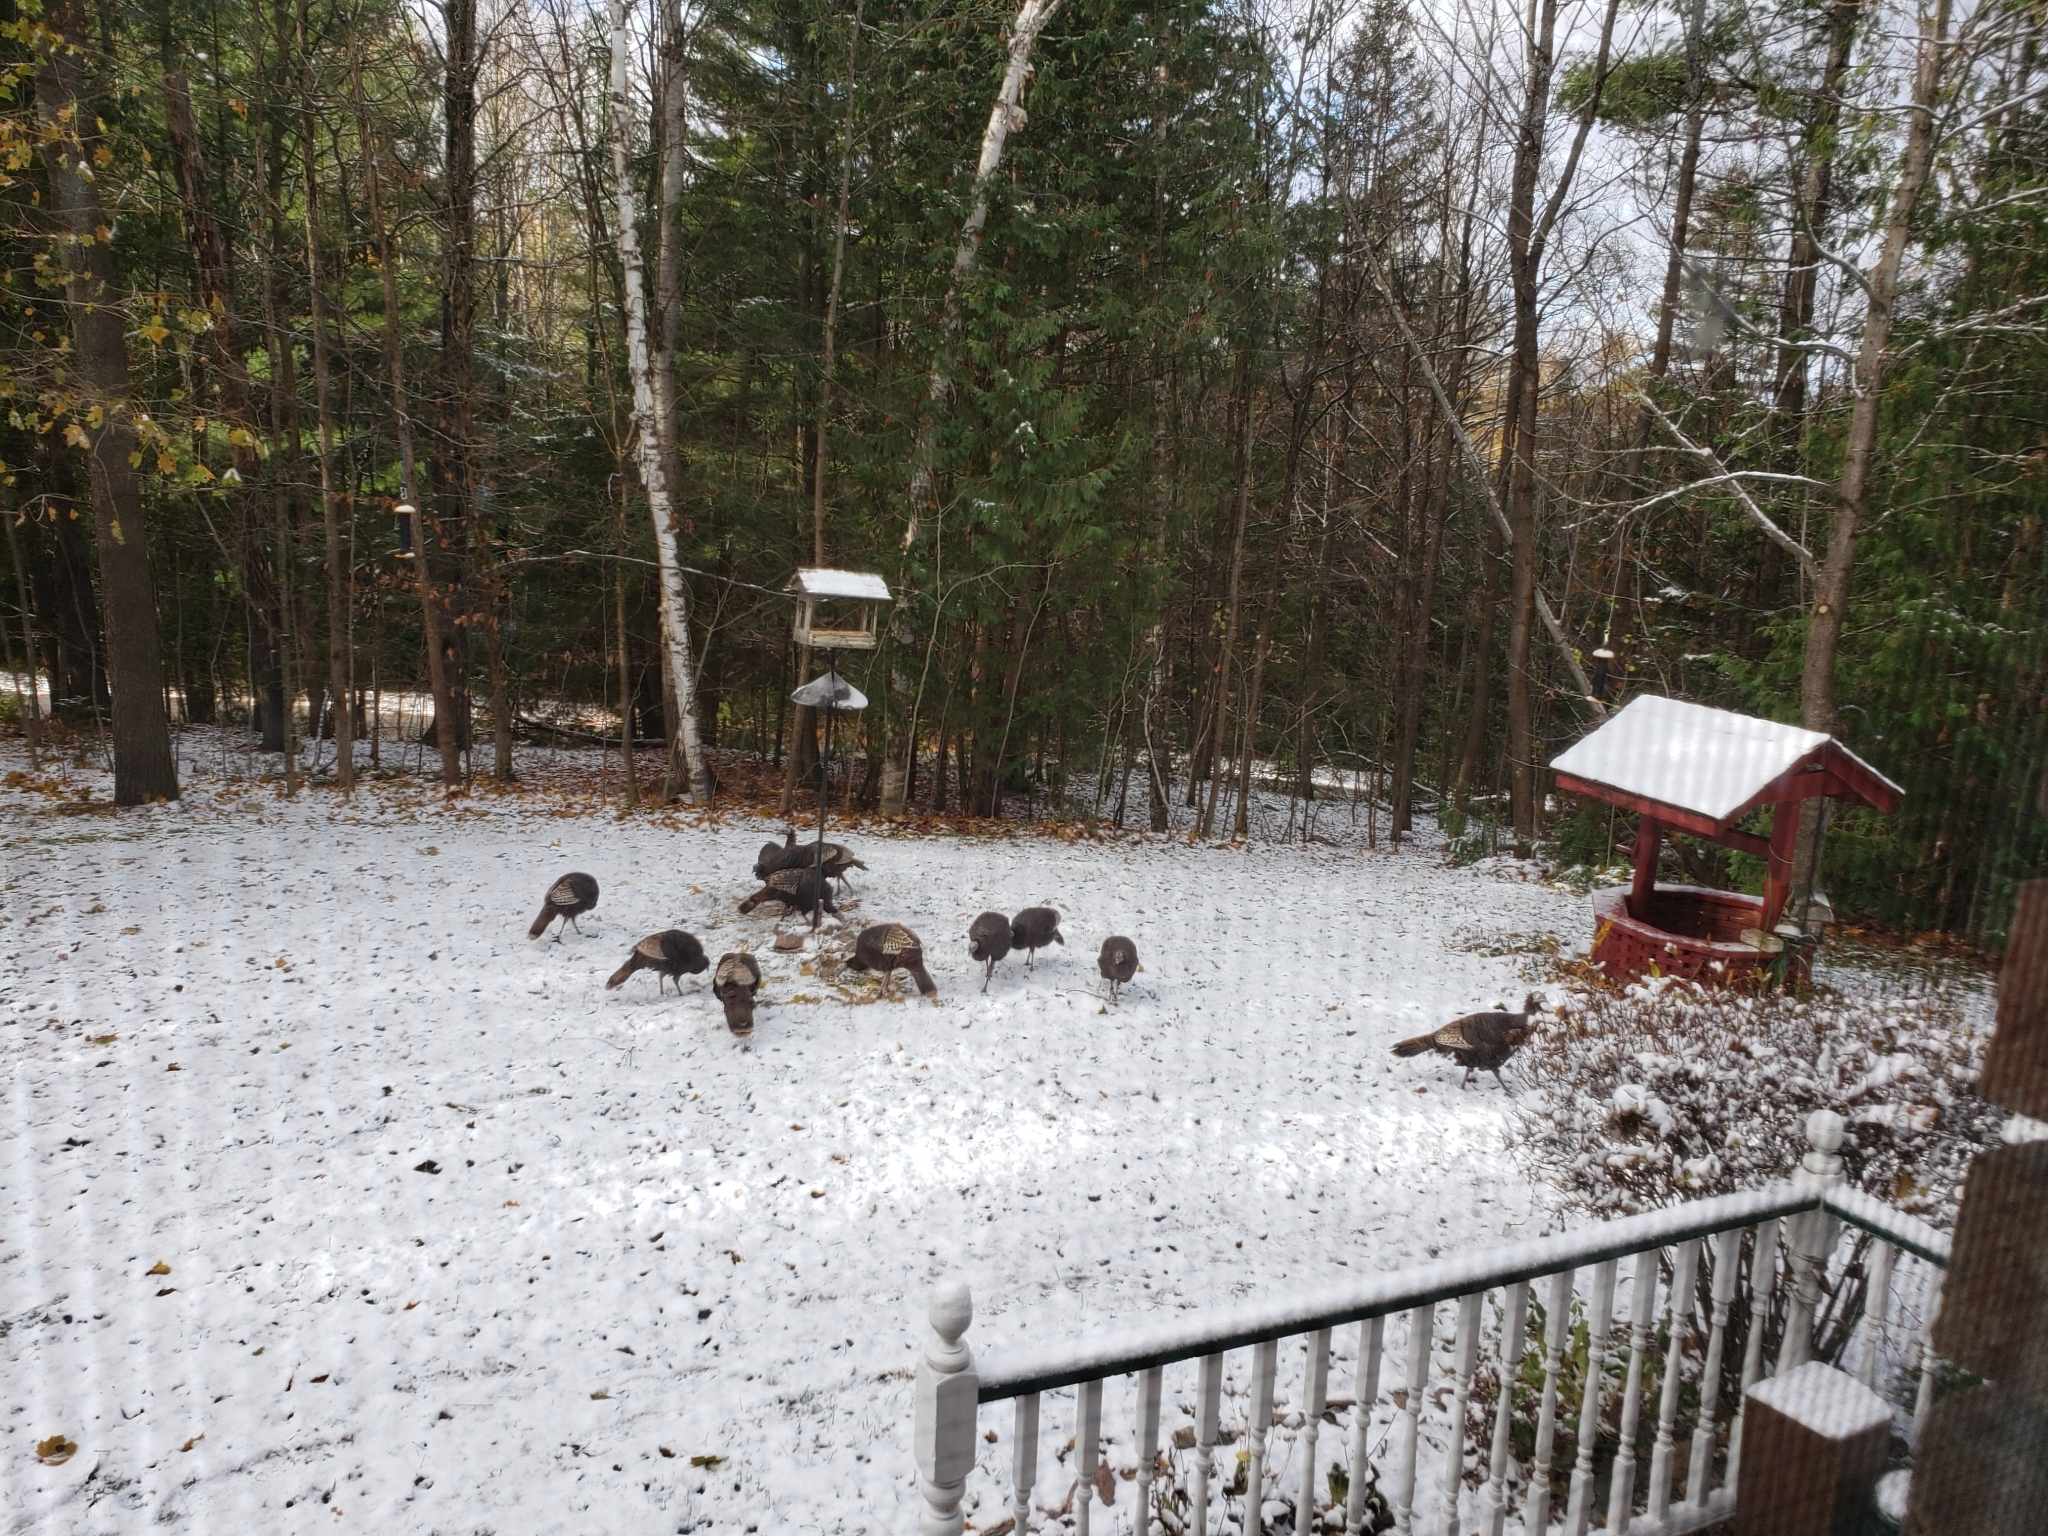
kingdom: Animalia
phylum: Chordata
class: Aves
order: Galliformes
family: Phasianidae
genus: Meleagris
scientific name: Meleagris gallopavo
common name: Wild turkey
